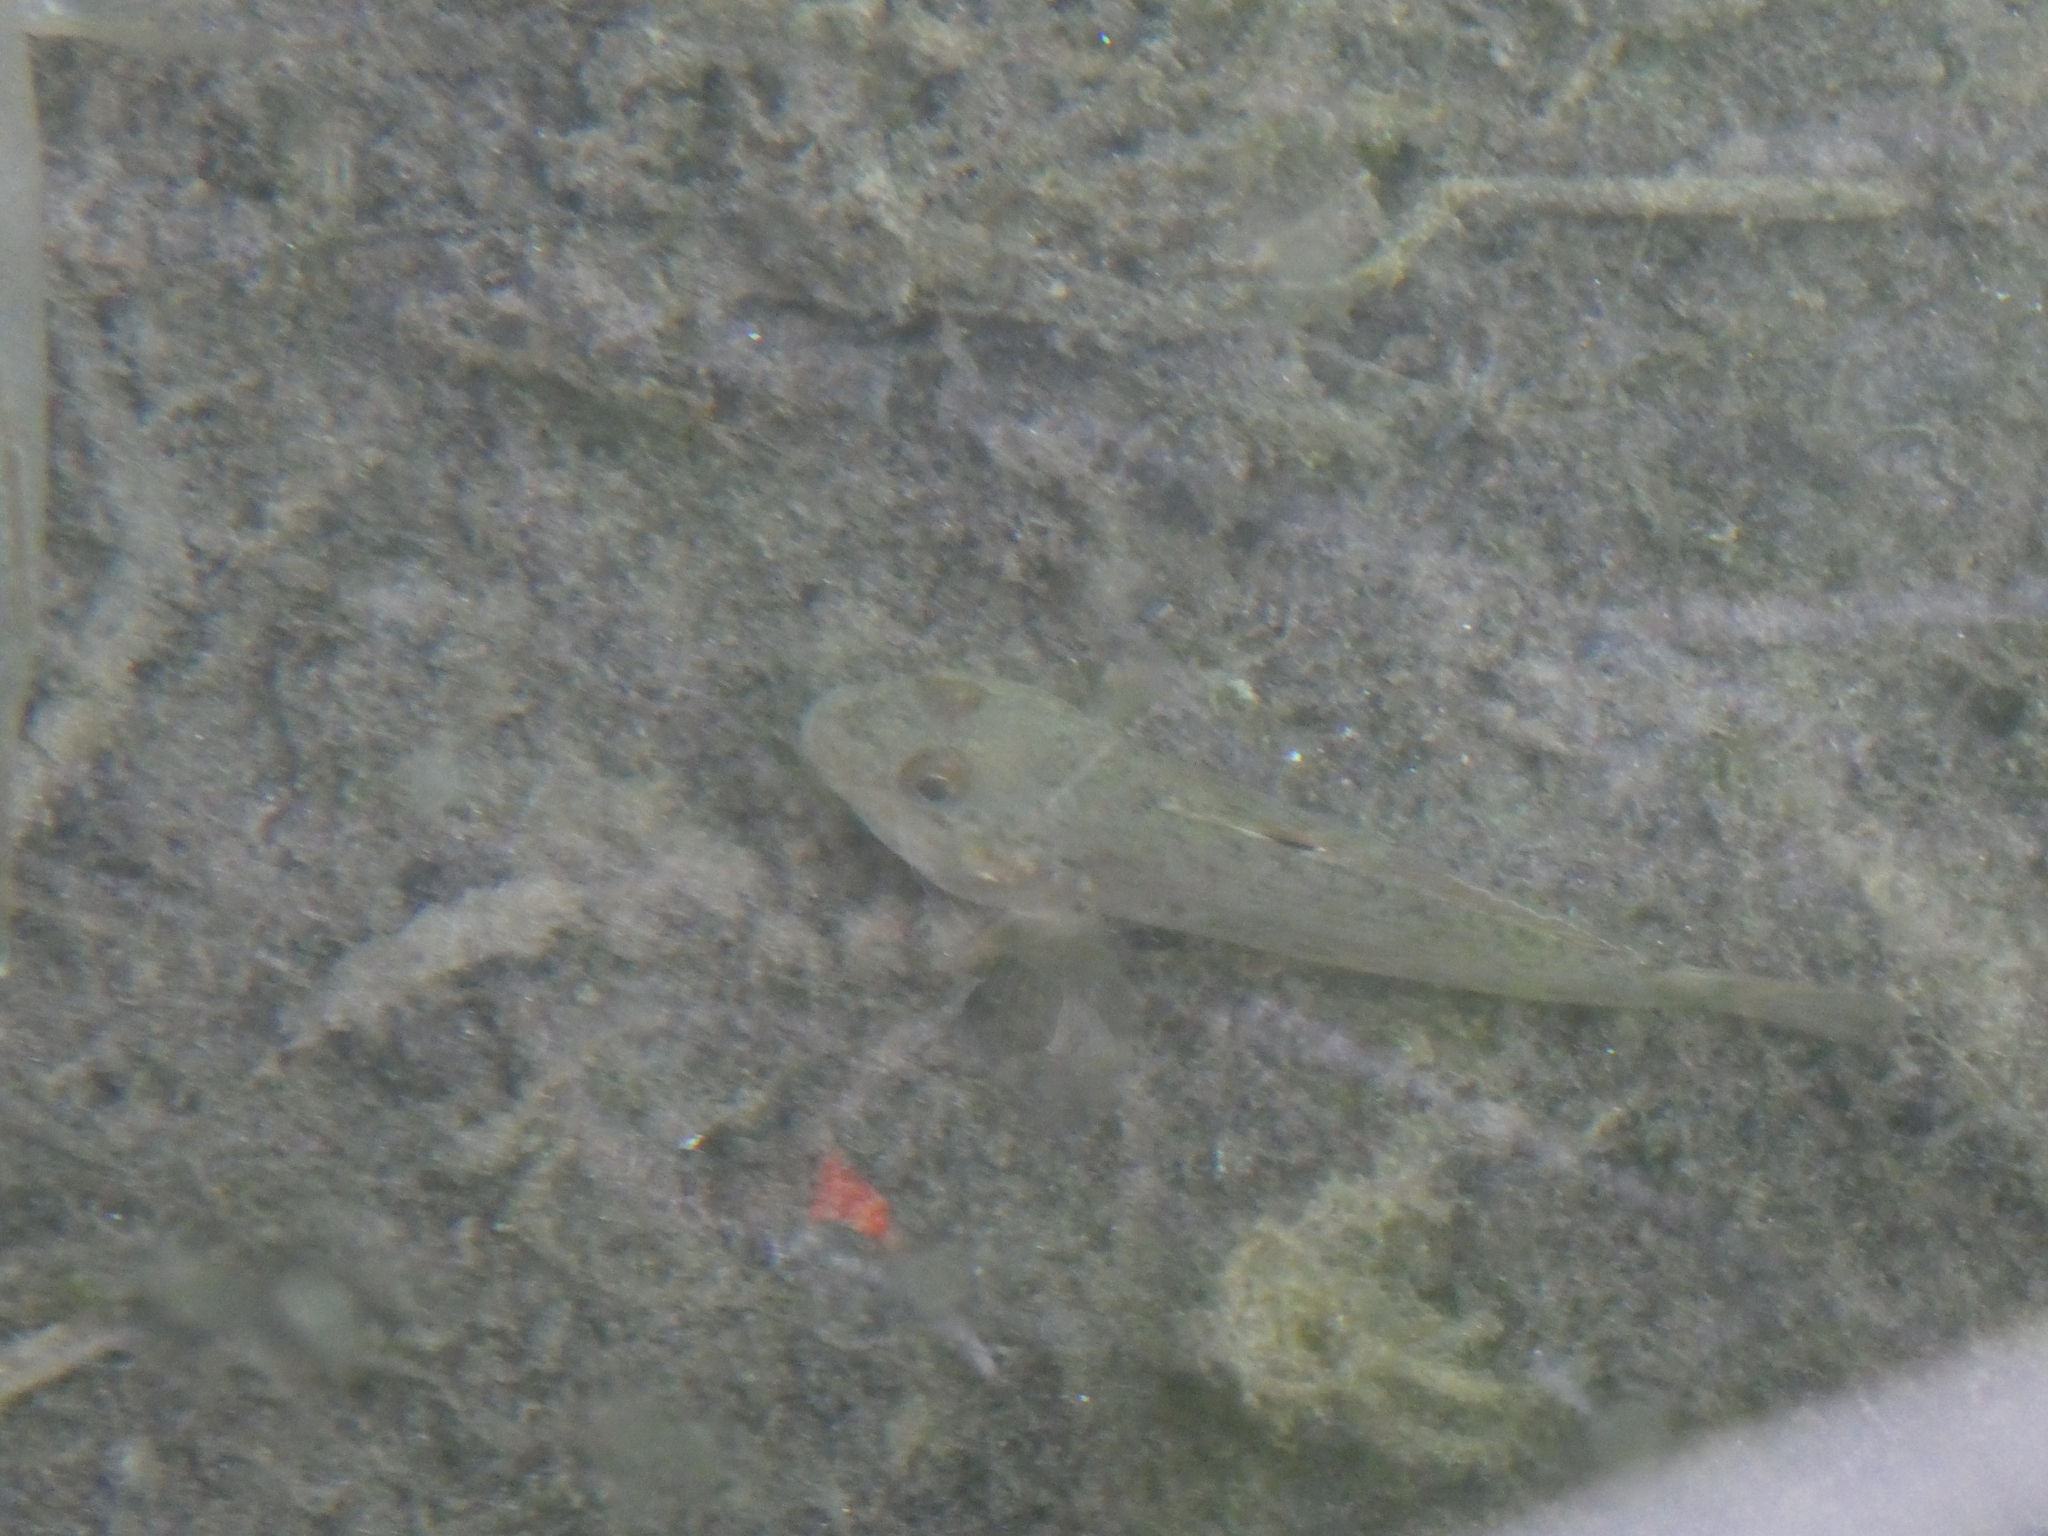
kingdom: Animalia
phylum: Chordata
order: Perciformes
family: Gobiidae
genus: Neogobius
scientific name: Neogobius melanostomus
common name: Round goby
